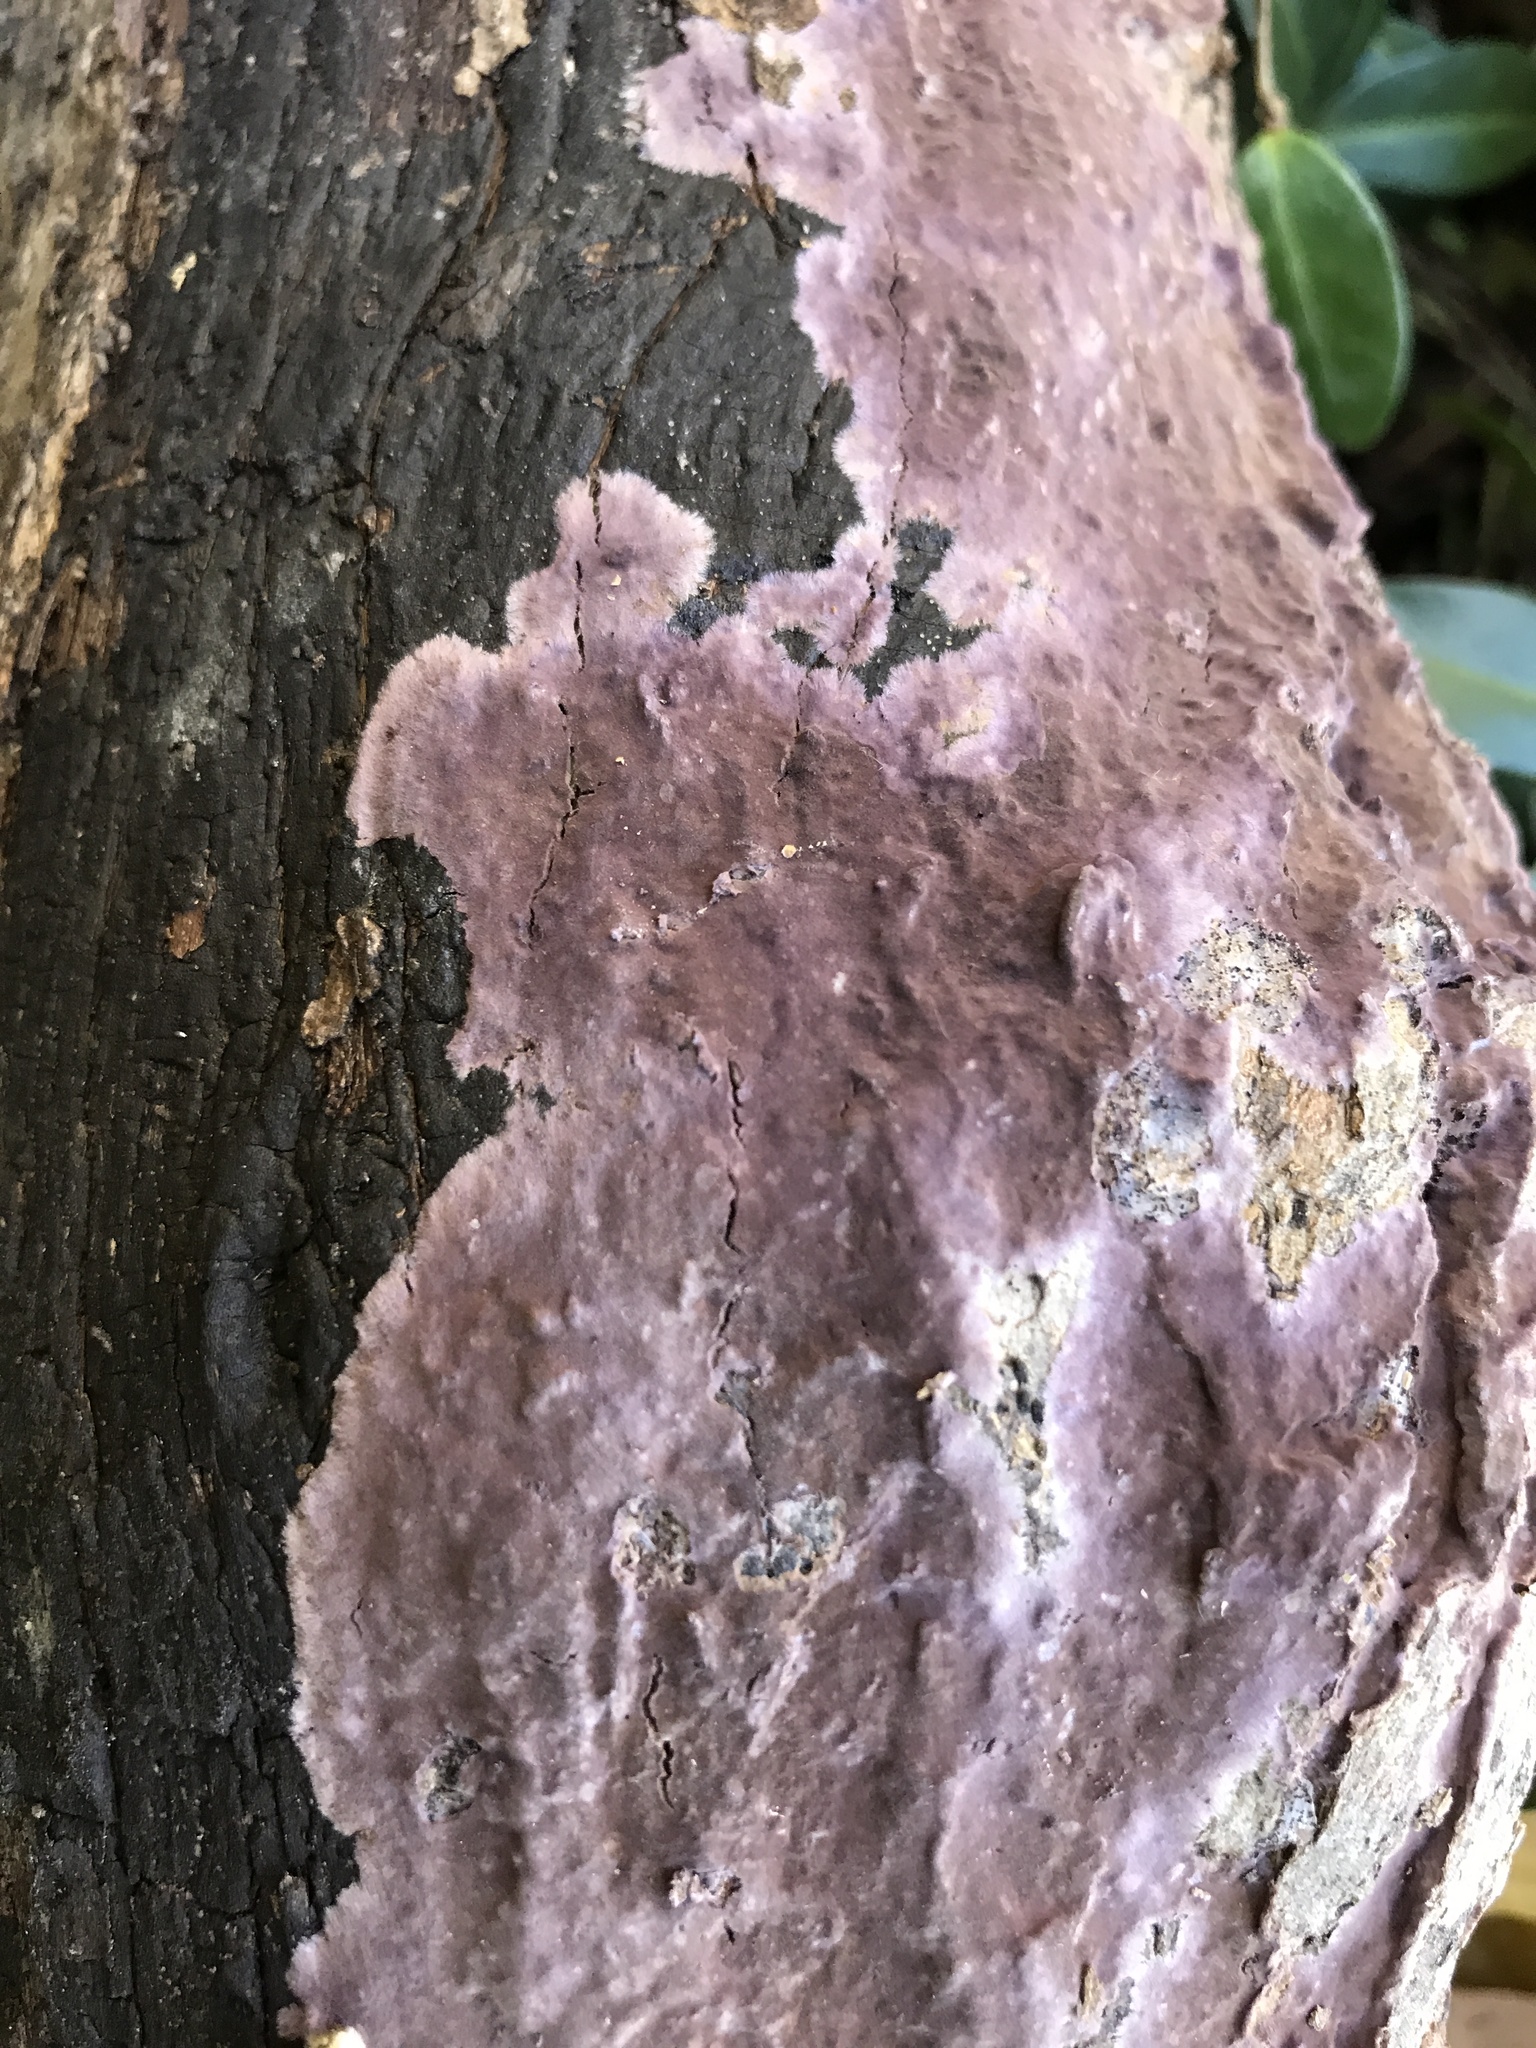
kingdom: Fungi
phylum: Basidiomycota
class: Agaricomycetes
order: Corticiales
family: Punctulariaceae
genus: Punctularia
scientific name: Punctularia atropurpurascens
